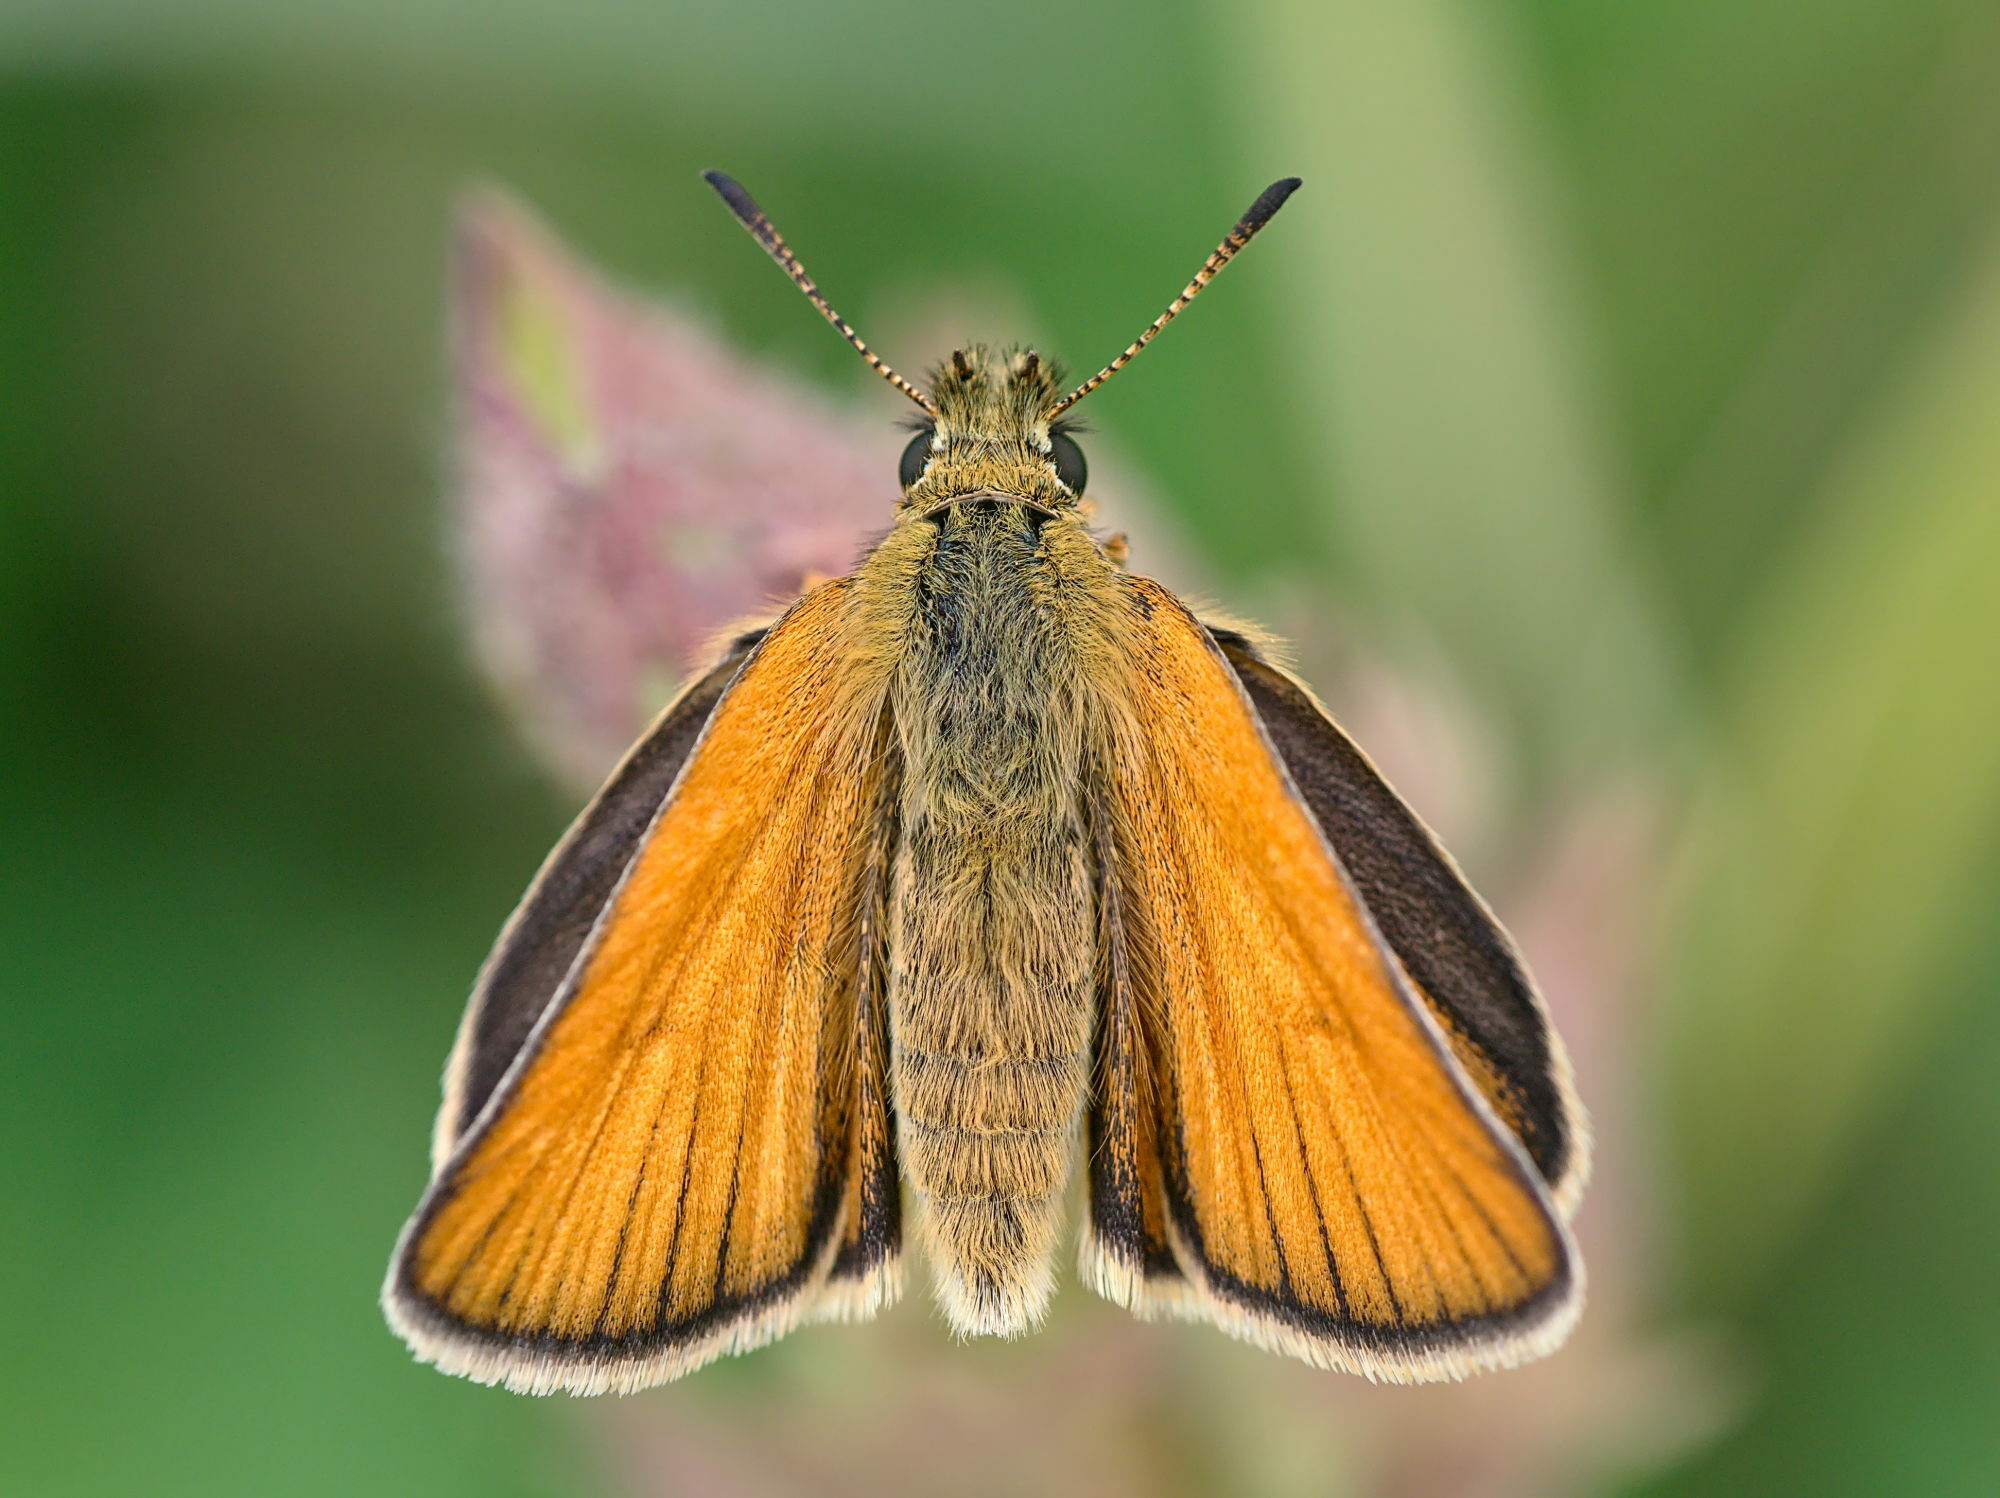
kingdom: Animalia
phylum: Arthropoda
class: Insecta
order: Lepidoptera
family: Hesperiidae
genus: Thymelicus
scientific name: Thymelicus lineola
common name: Essex skipper
